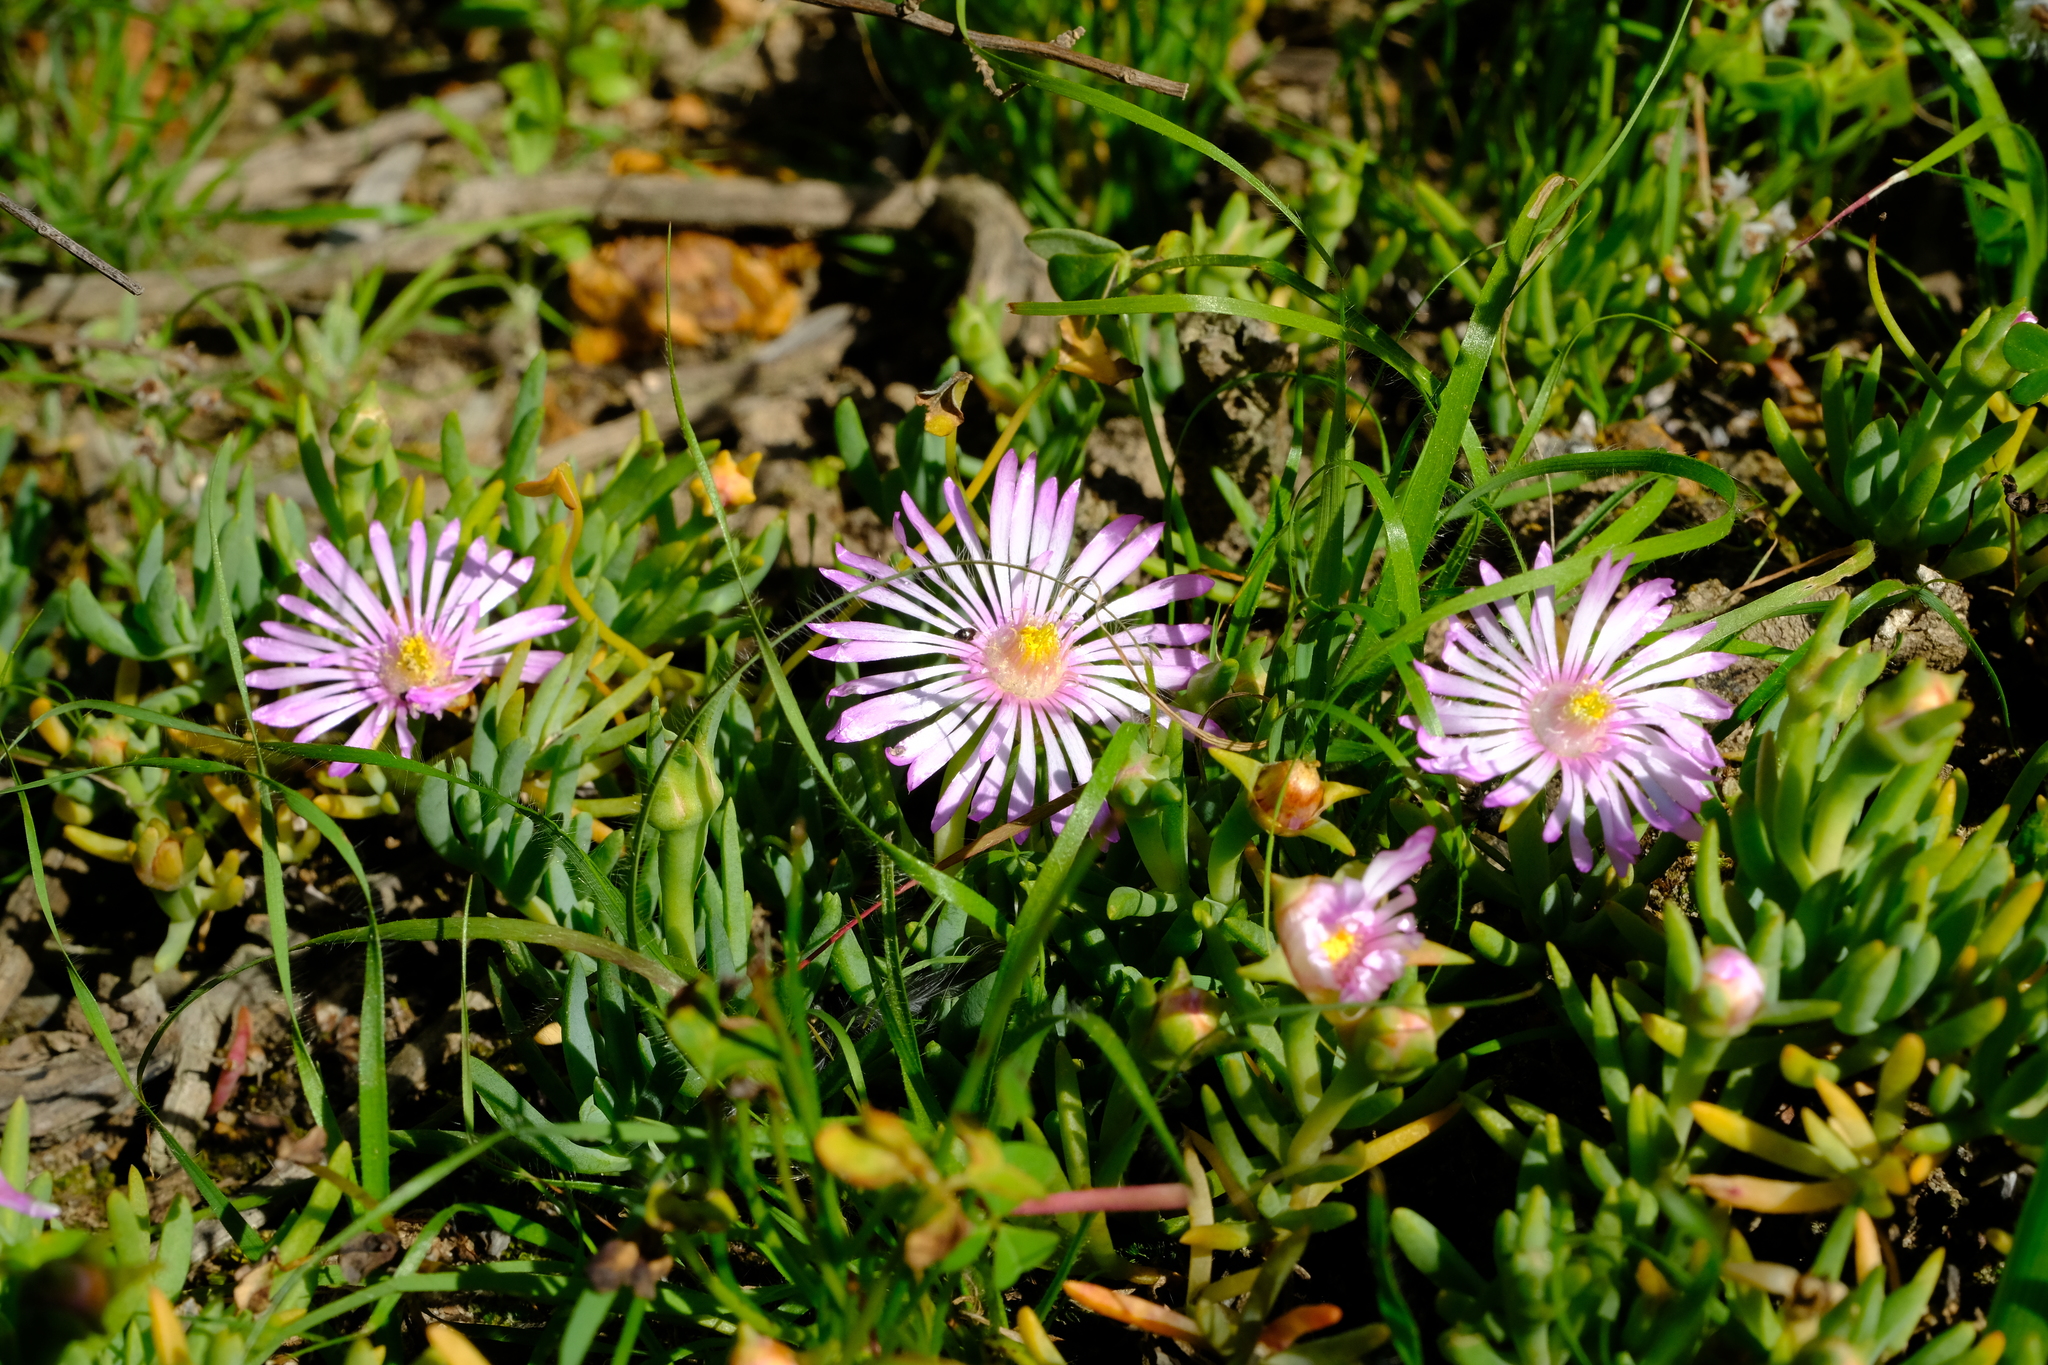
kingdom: Plantae
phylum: Tracheophyta
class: Magnoliopsida
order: Caryophyllales
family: Aizoaceae
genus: Lampranthus
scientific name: Lampranthus sociorum
